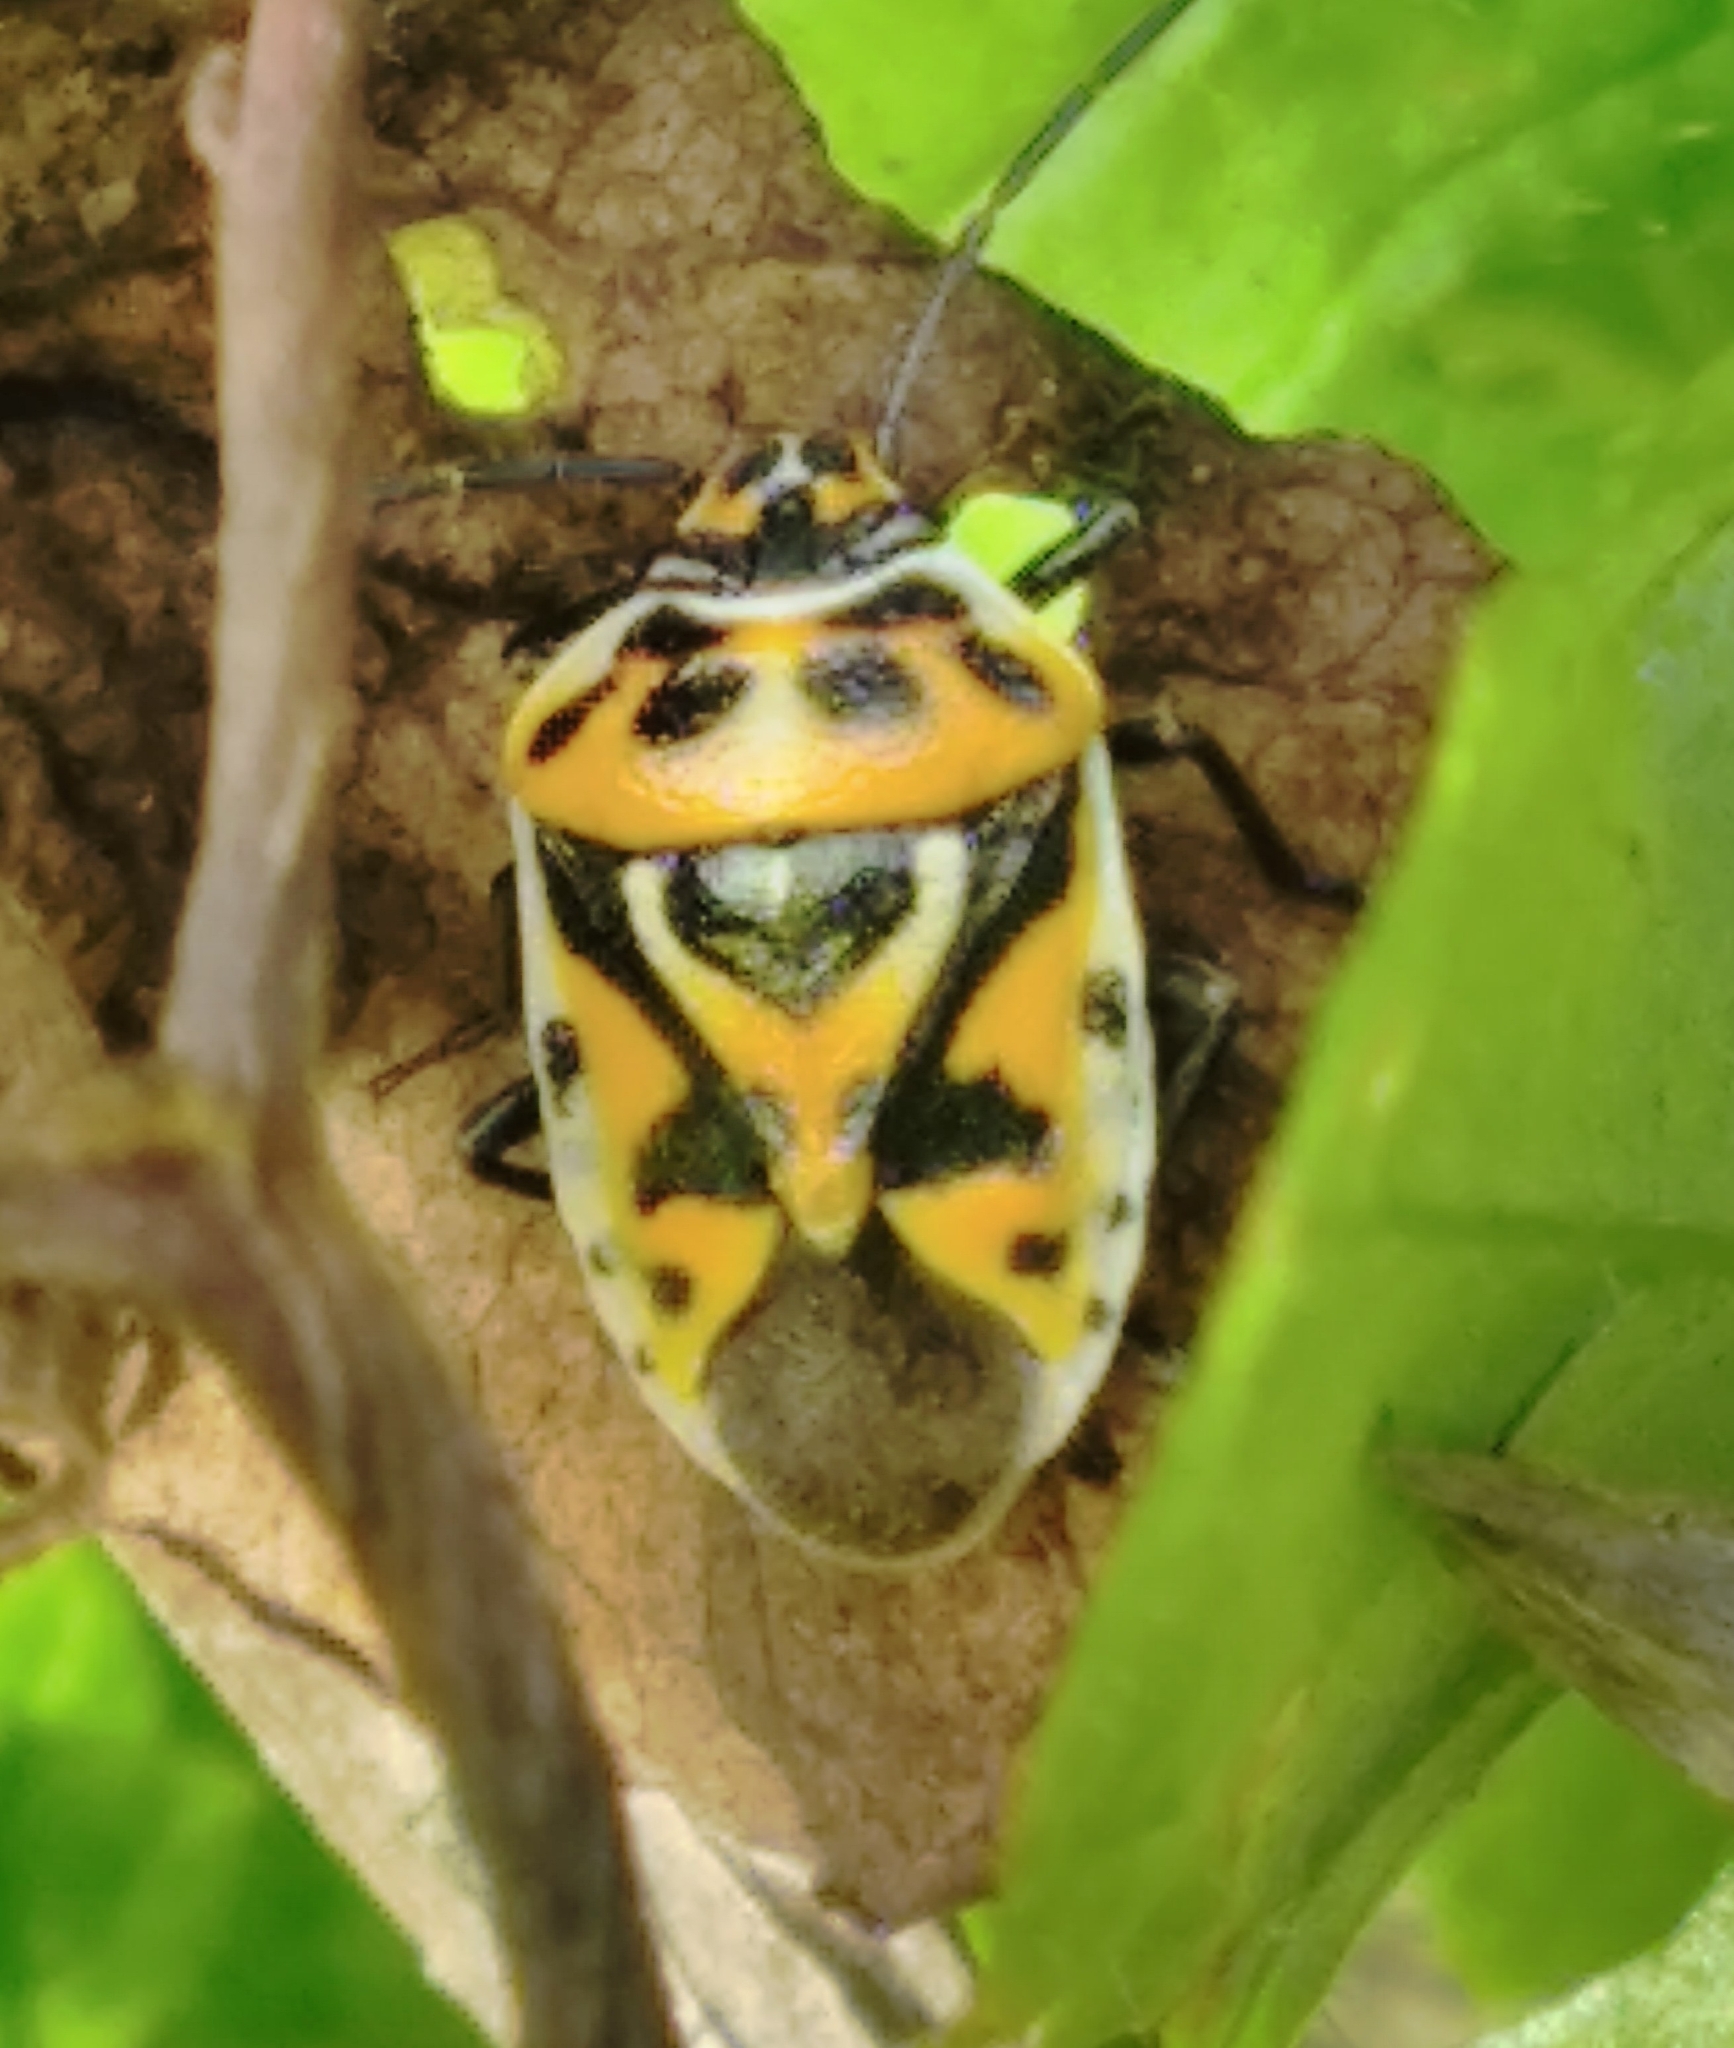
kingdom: Animalia
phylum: Arthropoda
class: Insecta
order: Hemiptera
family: Pentatomidae
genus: Eurydema
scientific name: Eurydema ornata
